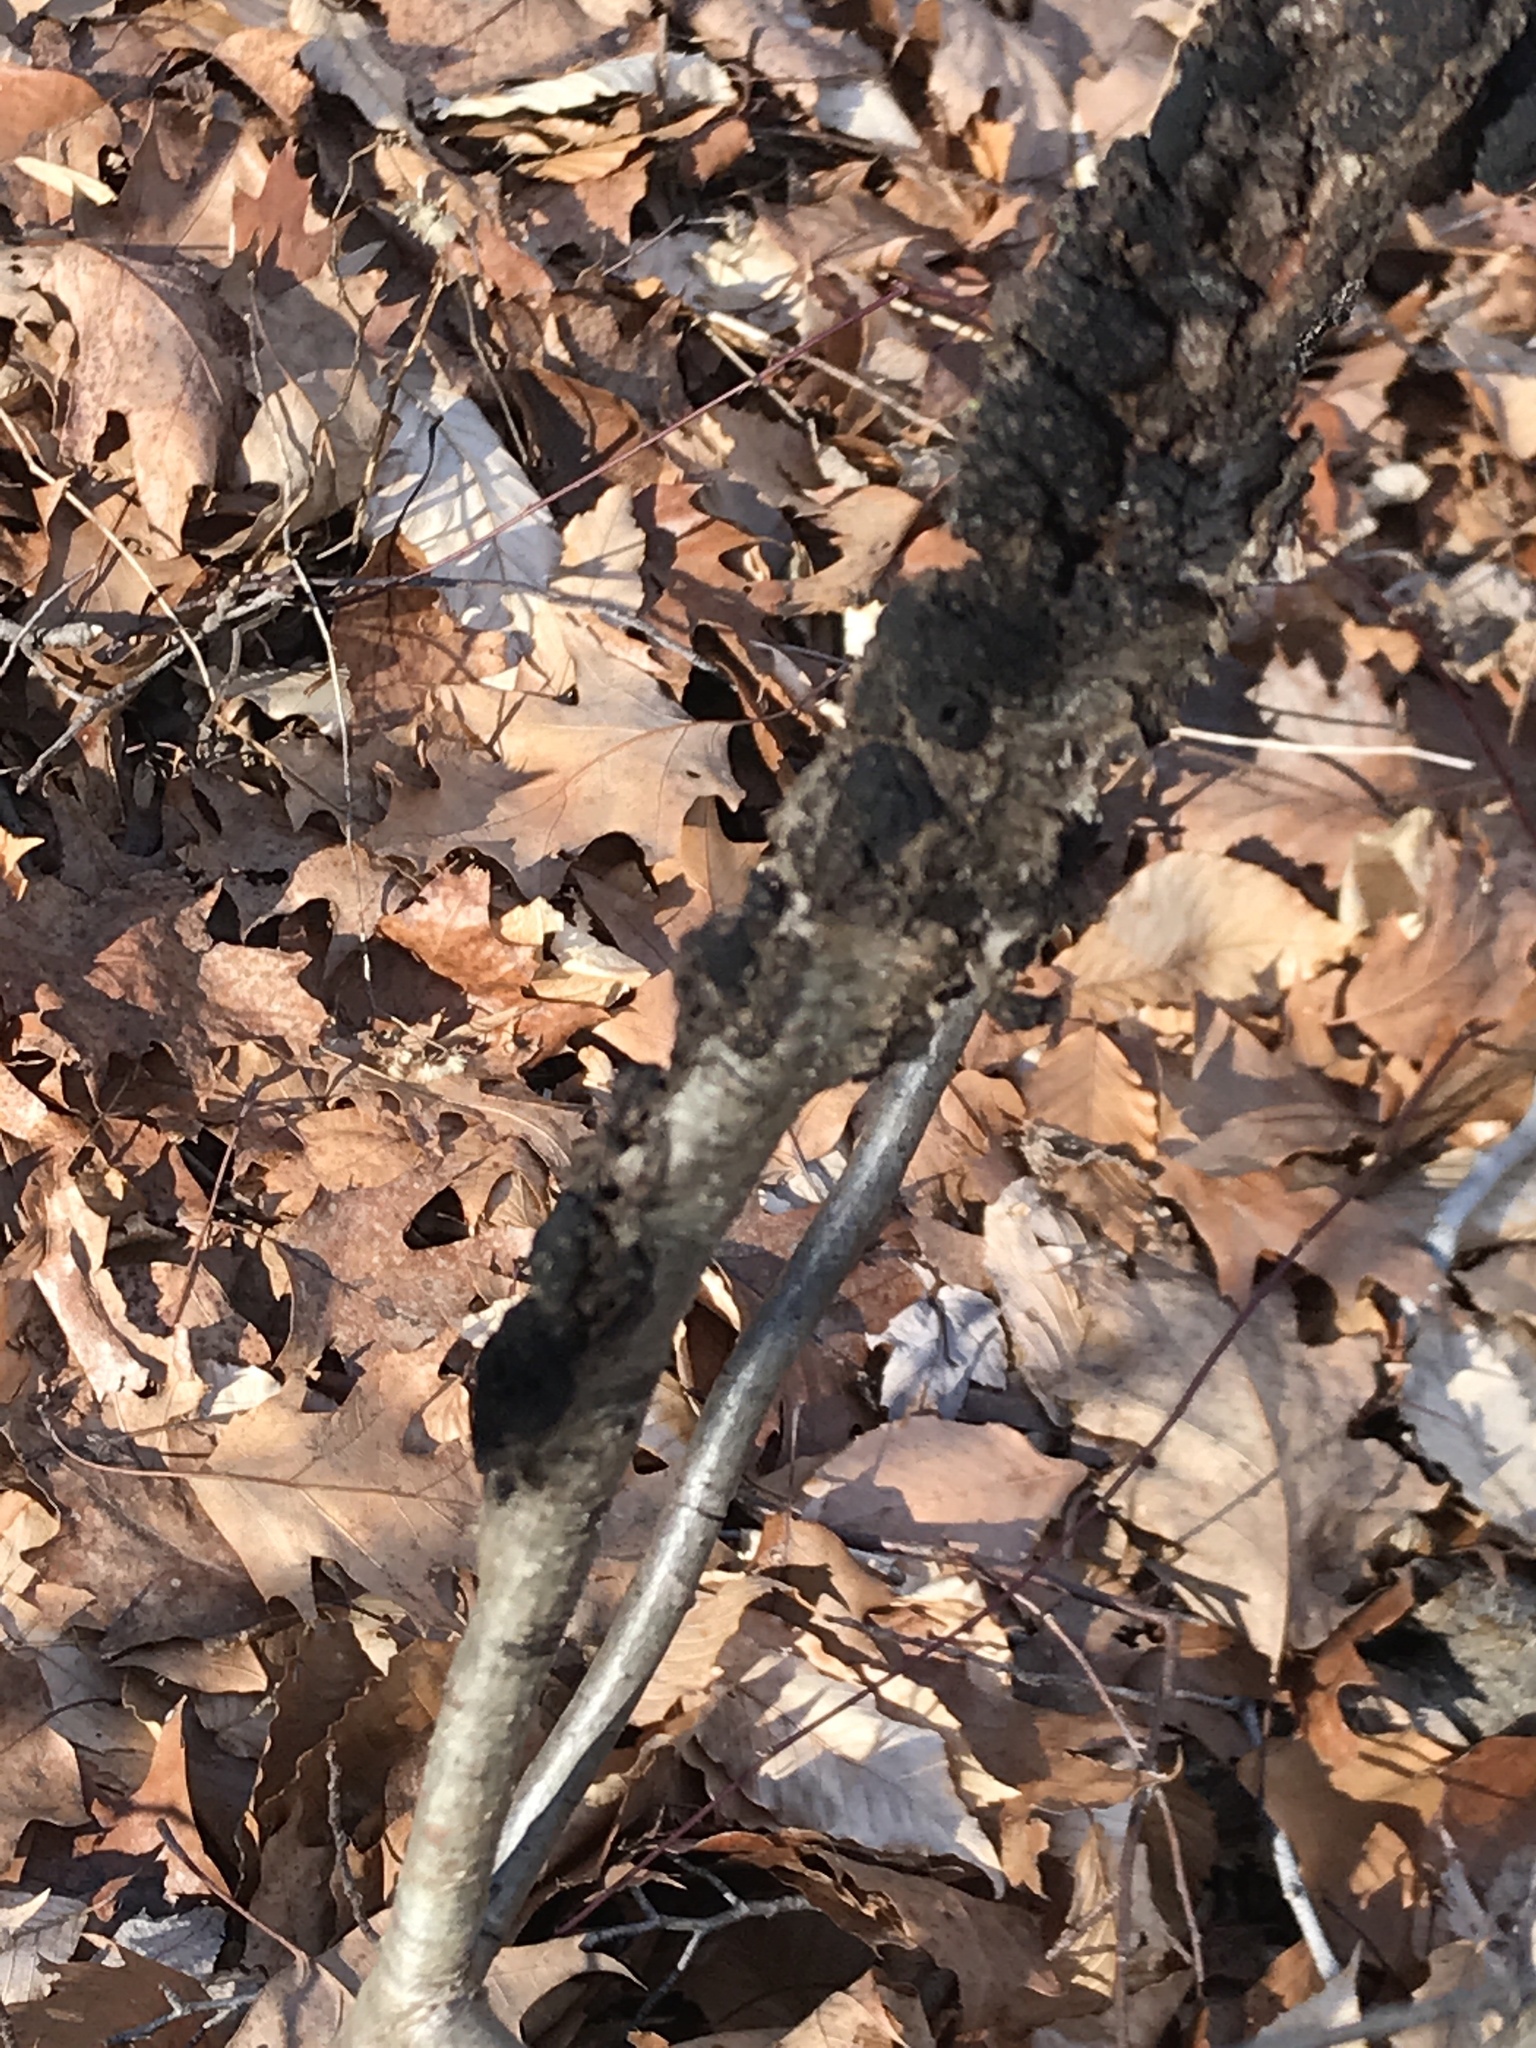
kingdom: Fungi
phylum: Ascomycota
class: Dothideomycetes
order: Venturiales
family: Venturiaceae
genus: Apiosporina
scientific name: Apiosporina morbosa
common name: Black knot
